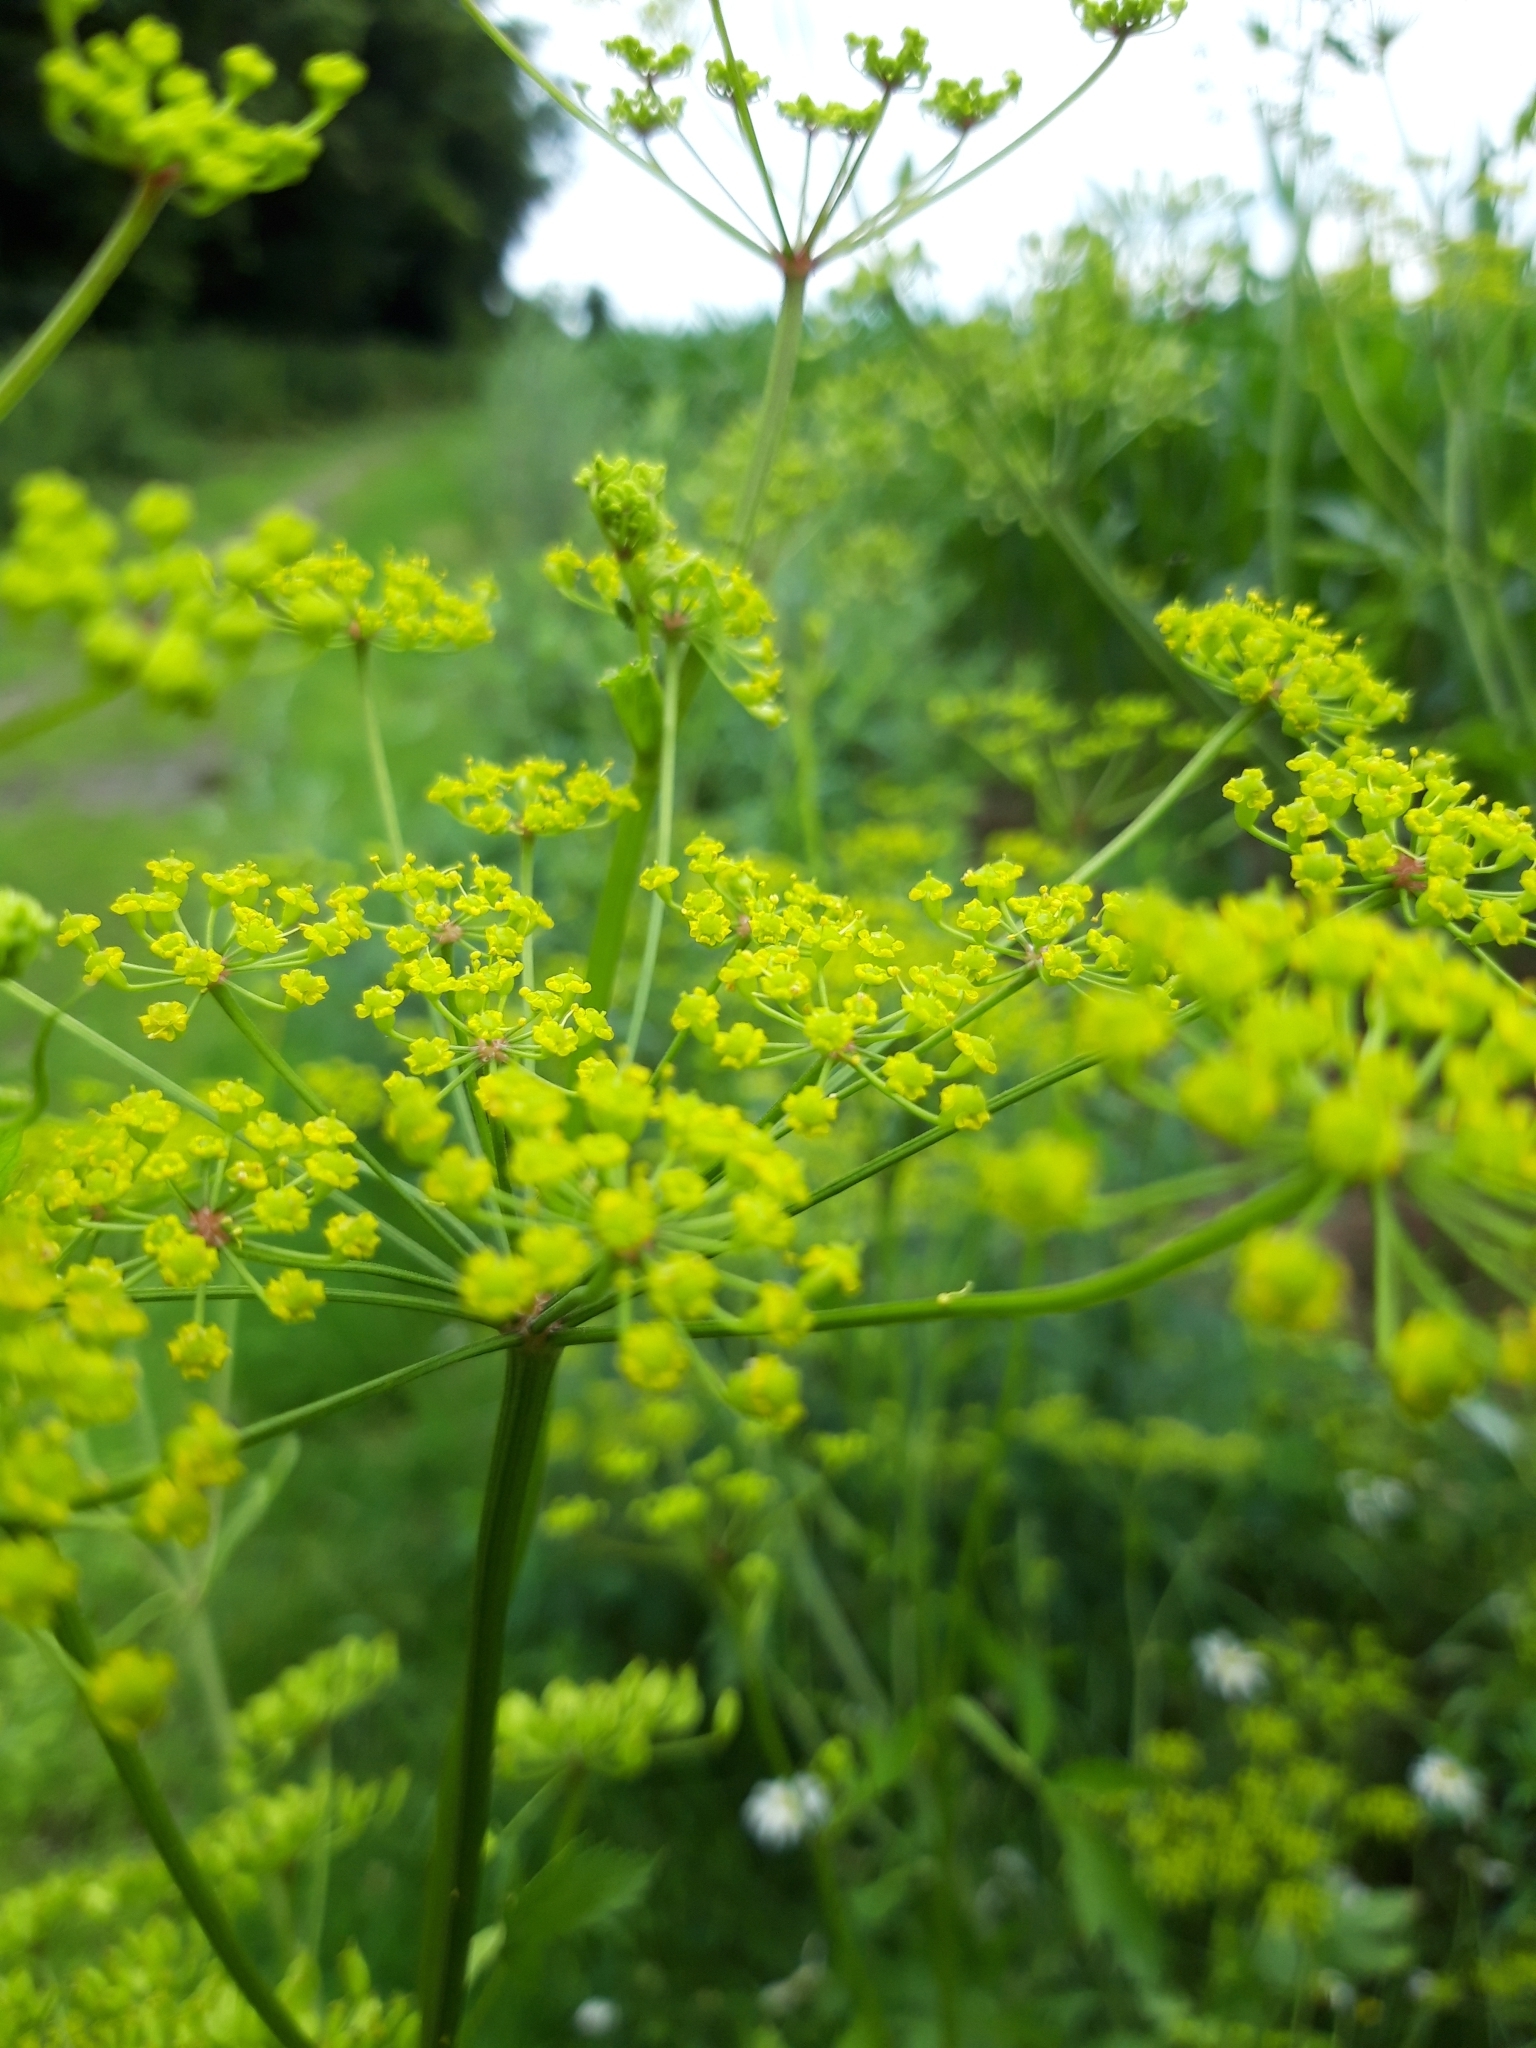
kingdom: Plantae
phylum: Tracheophyta
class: Magnoliopsida
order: Apiales
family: Apiaceae
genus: Pastinaca
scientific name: Pastinaca sativa
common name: Wild parsnip
